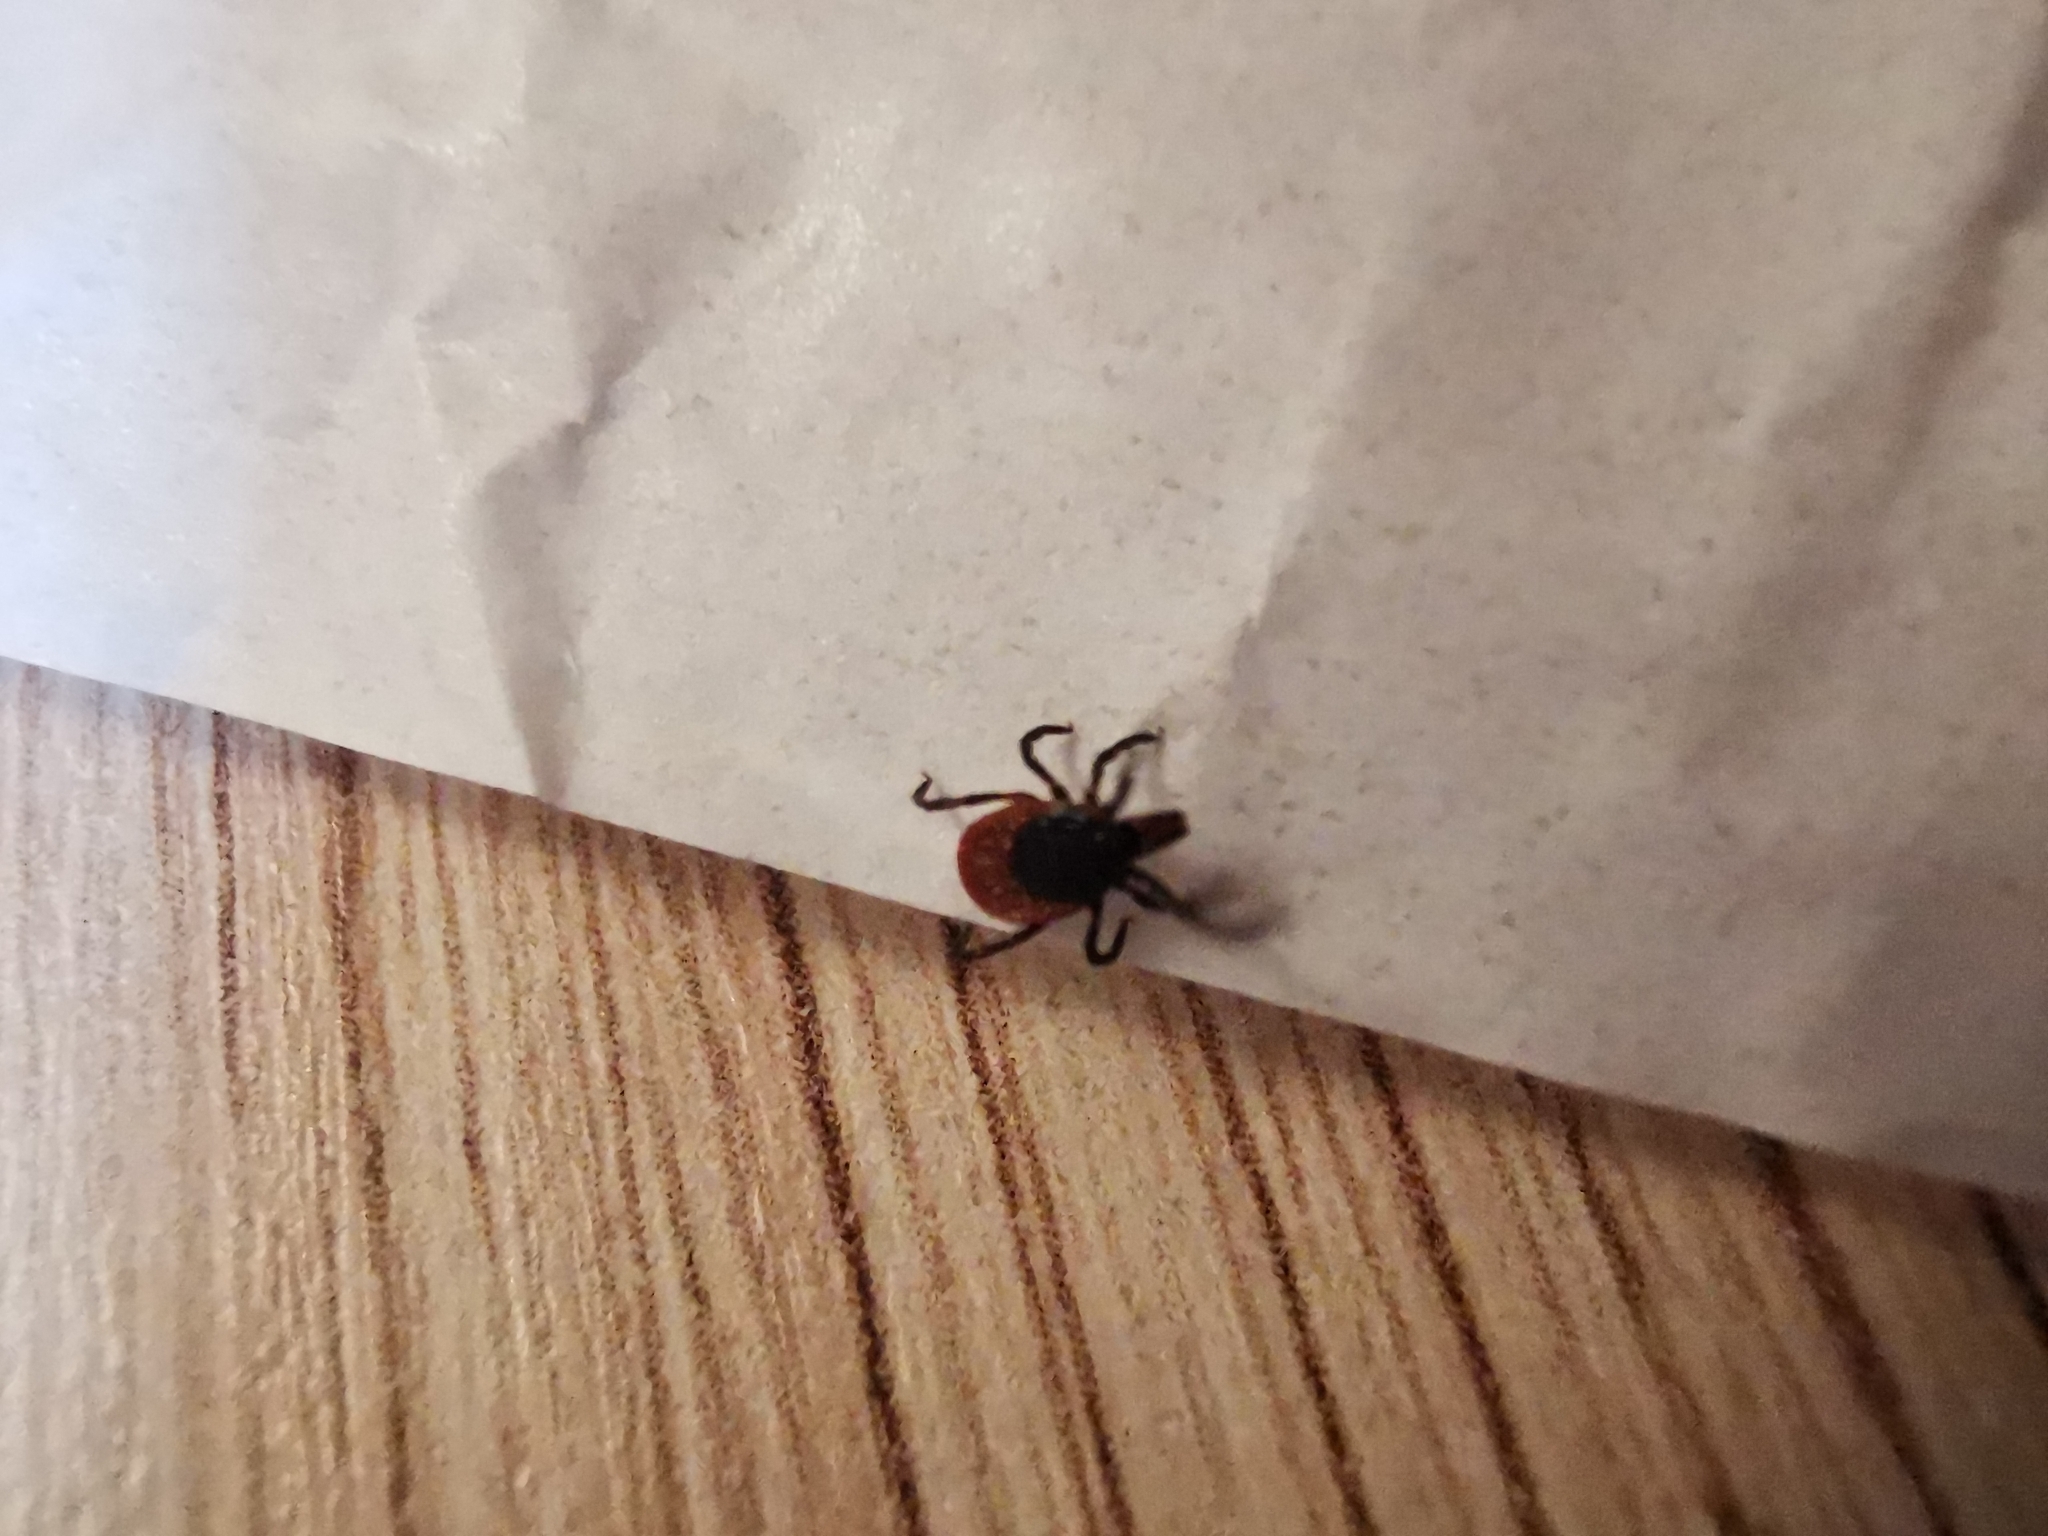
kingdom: Animalia
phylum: Arthropoda
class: Arachnida
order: Ixodida
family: Ixodidae
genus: Ixodes
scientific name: Ixodes ricinus
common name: Castor bean tick
